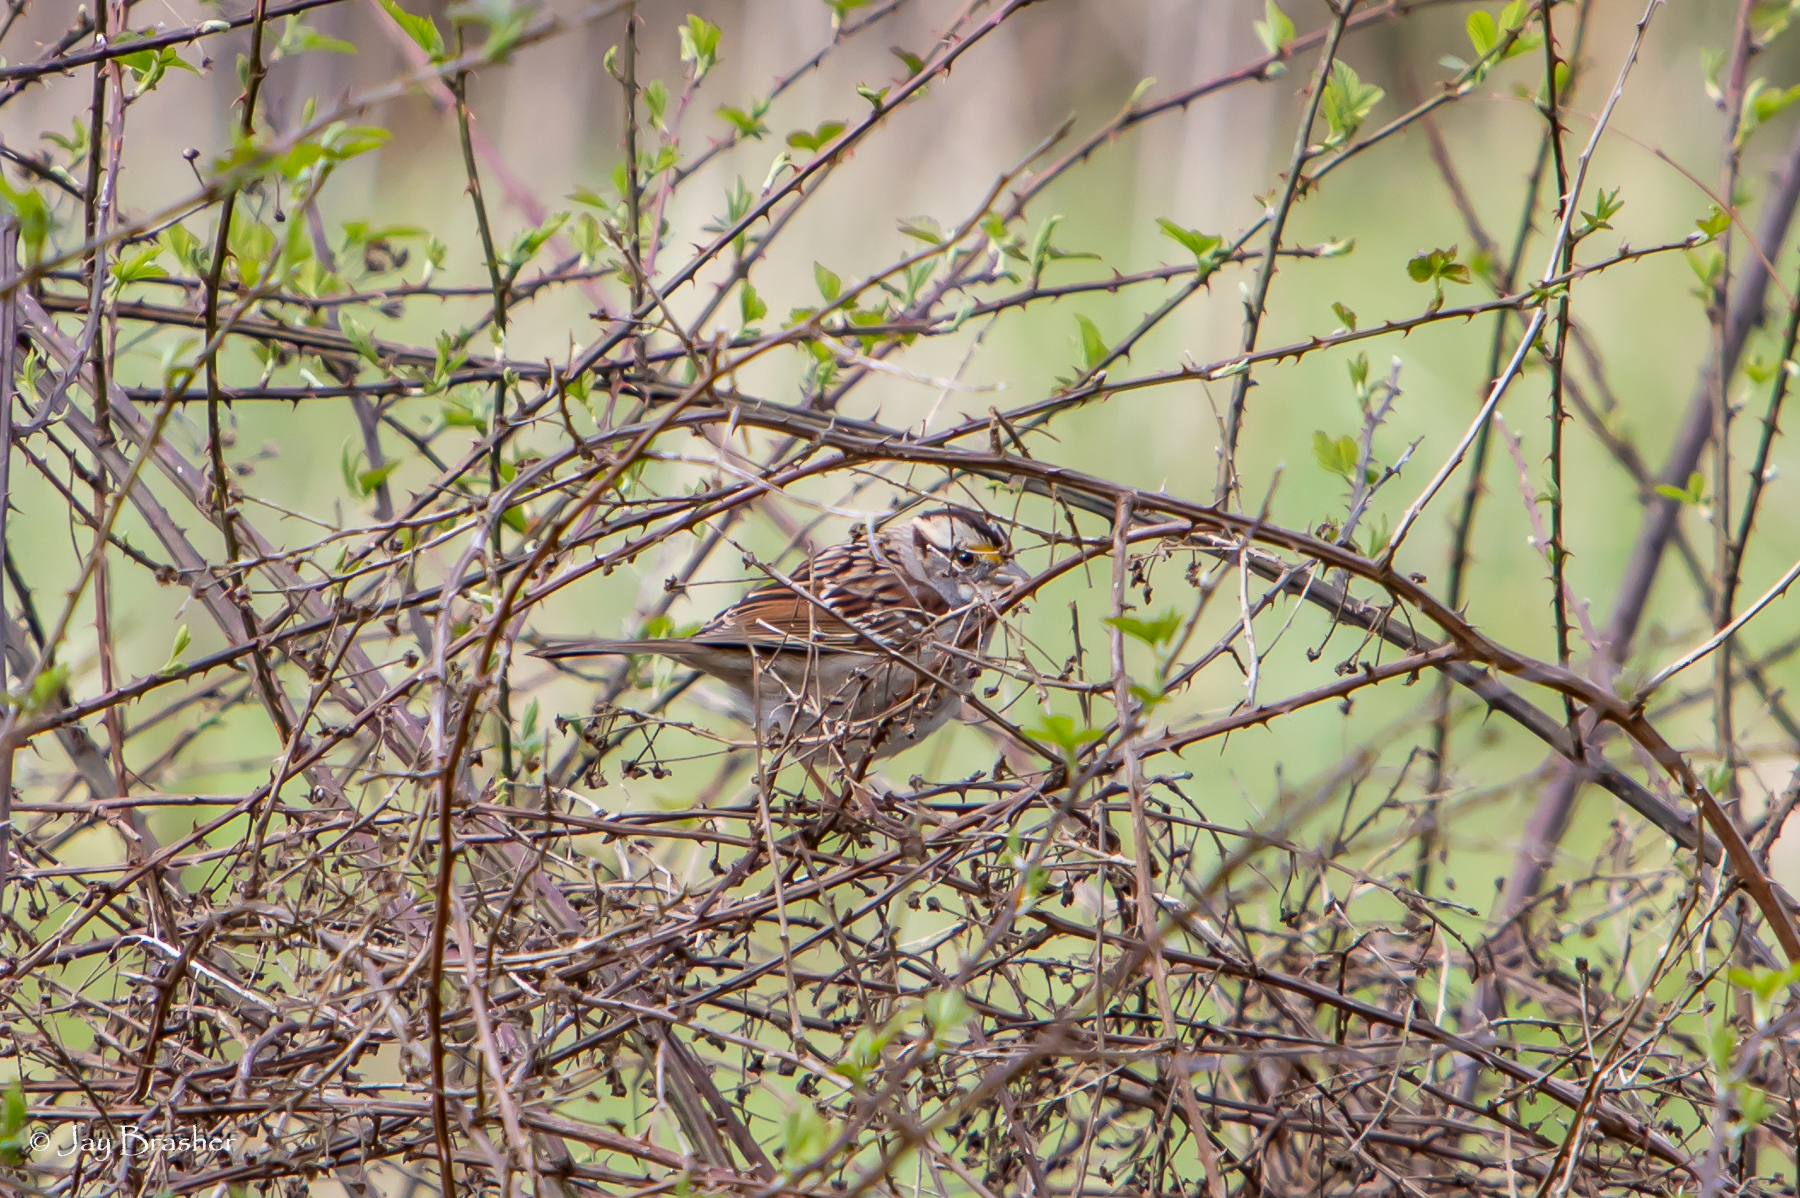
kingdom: Animalia
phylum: Chordata
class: Aves
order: Passeriformes
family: Passerellidae
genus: Zonotrichia
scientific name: Zonotrichia albicollis
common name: White-throated sparrow
